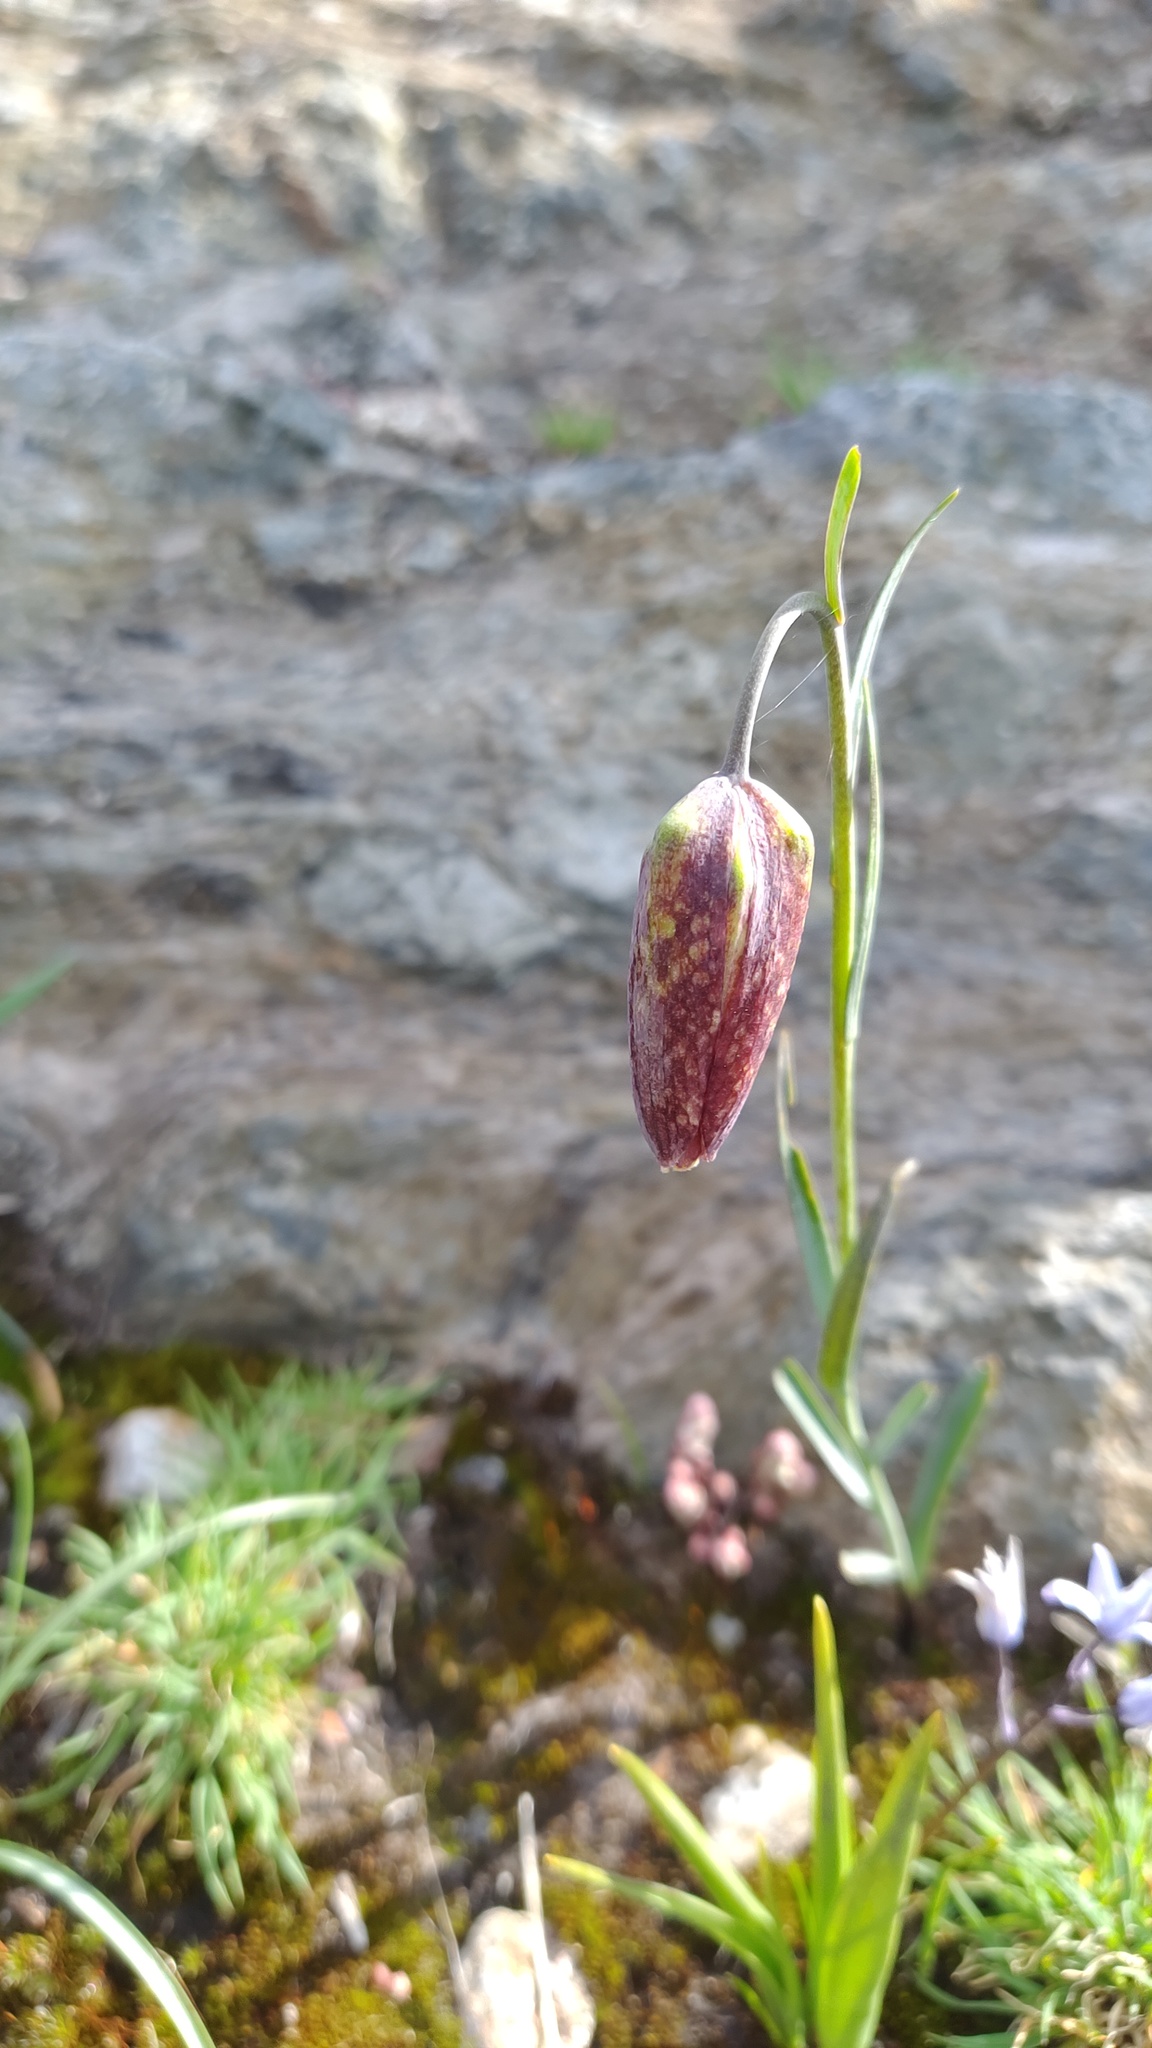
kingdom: Plantae
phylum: Tracheophyta
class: Liliopsida
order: Liliales
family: Liliaceae
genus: Fritillaria
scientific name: Fritillaria pyrenaica
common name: Pyrenean snake's-head
